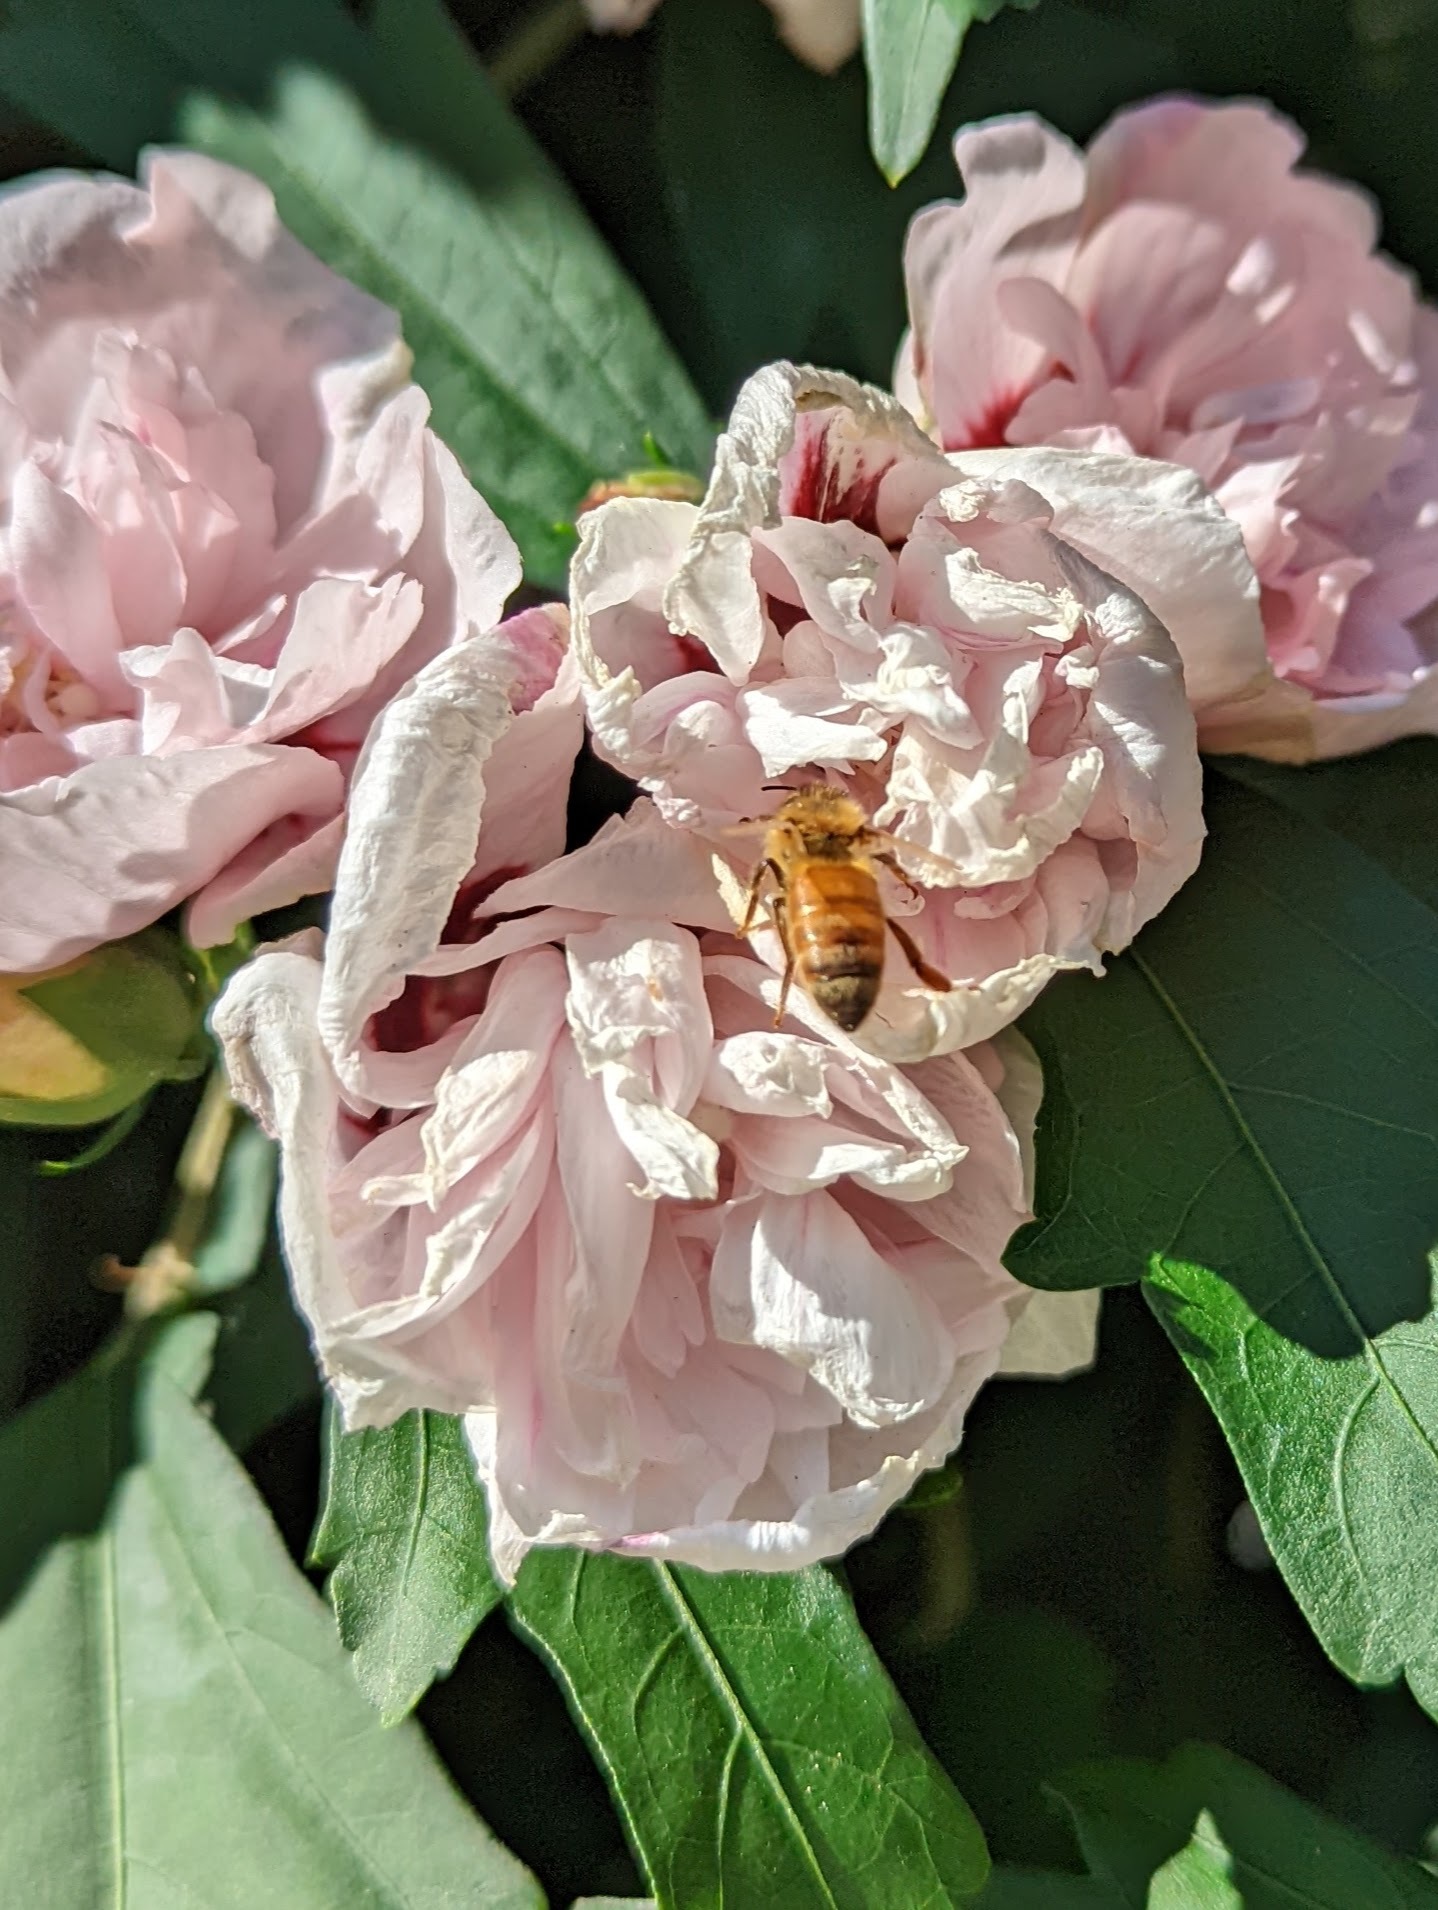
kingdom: Animalia
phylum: Arthropoda
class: Insecta
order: Hymenoptera
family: Apidae
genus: Apis
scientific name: Apis mellifera
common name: Honey bee
